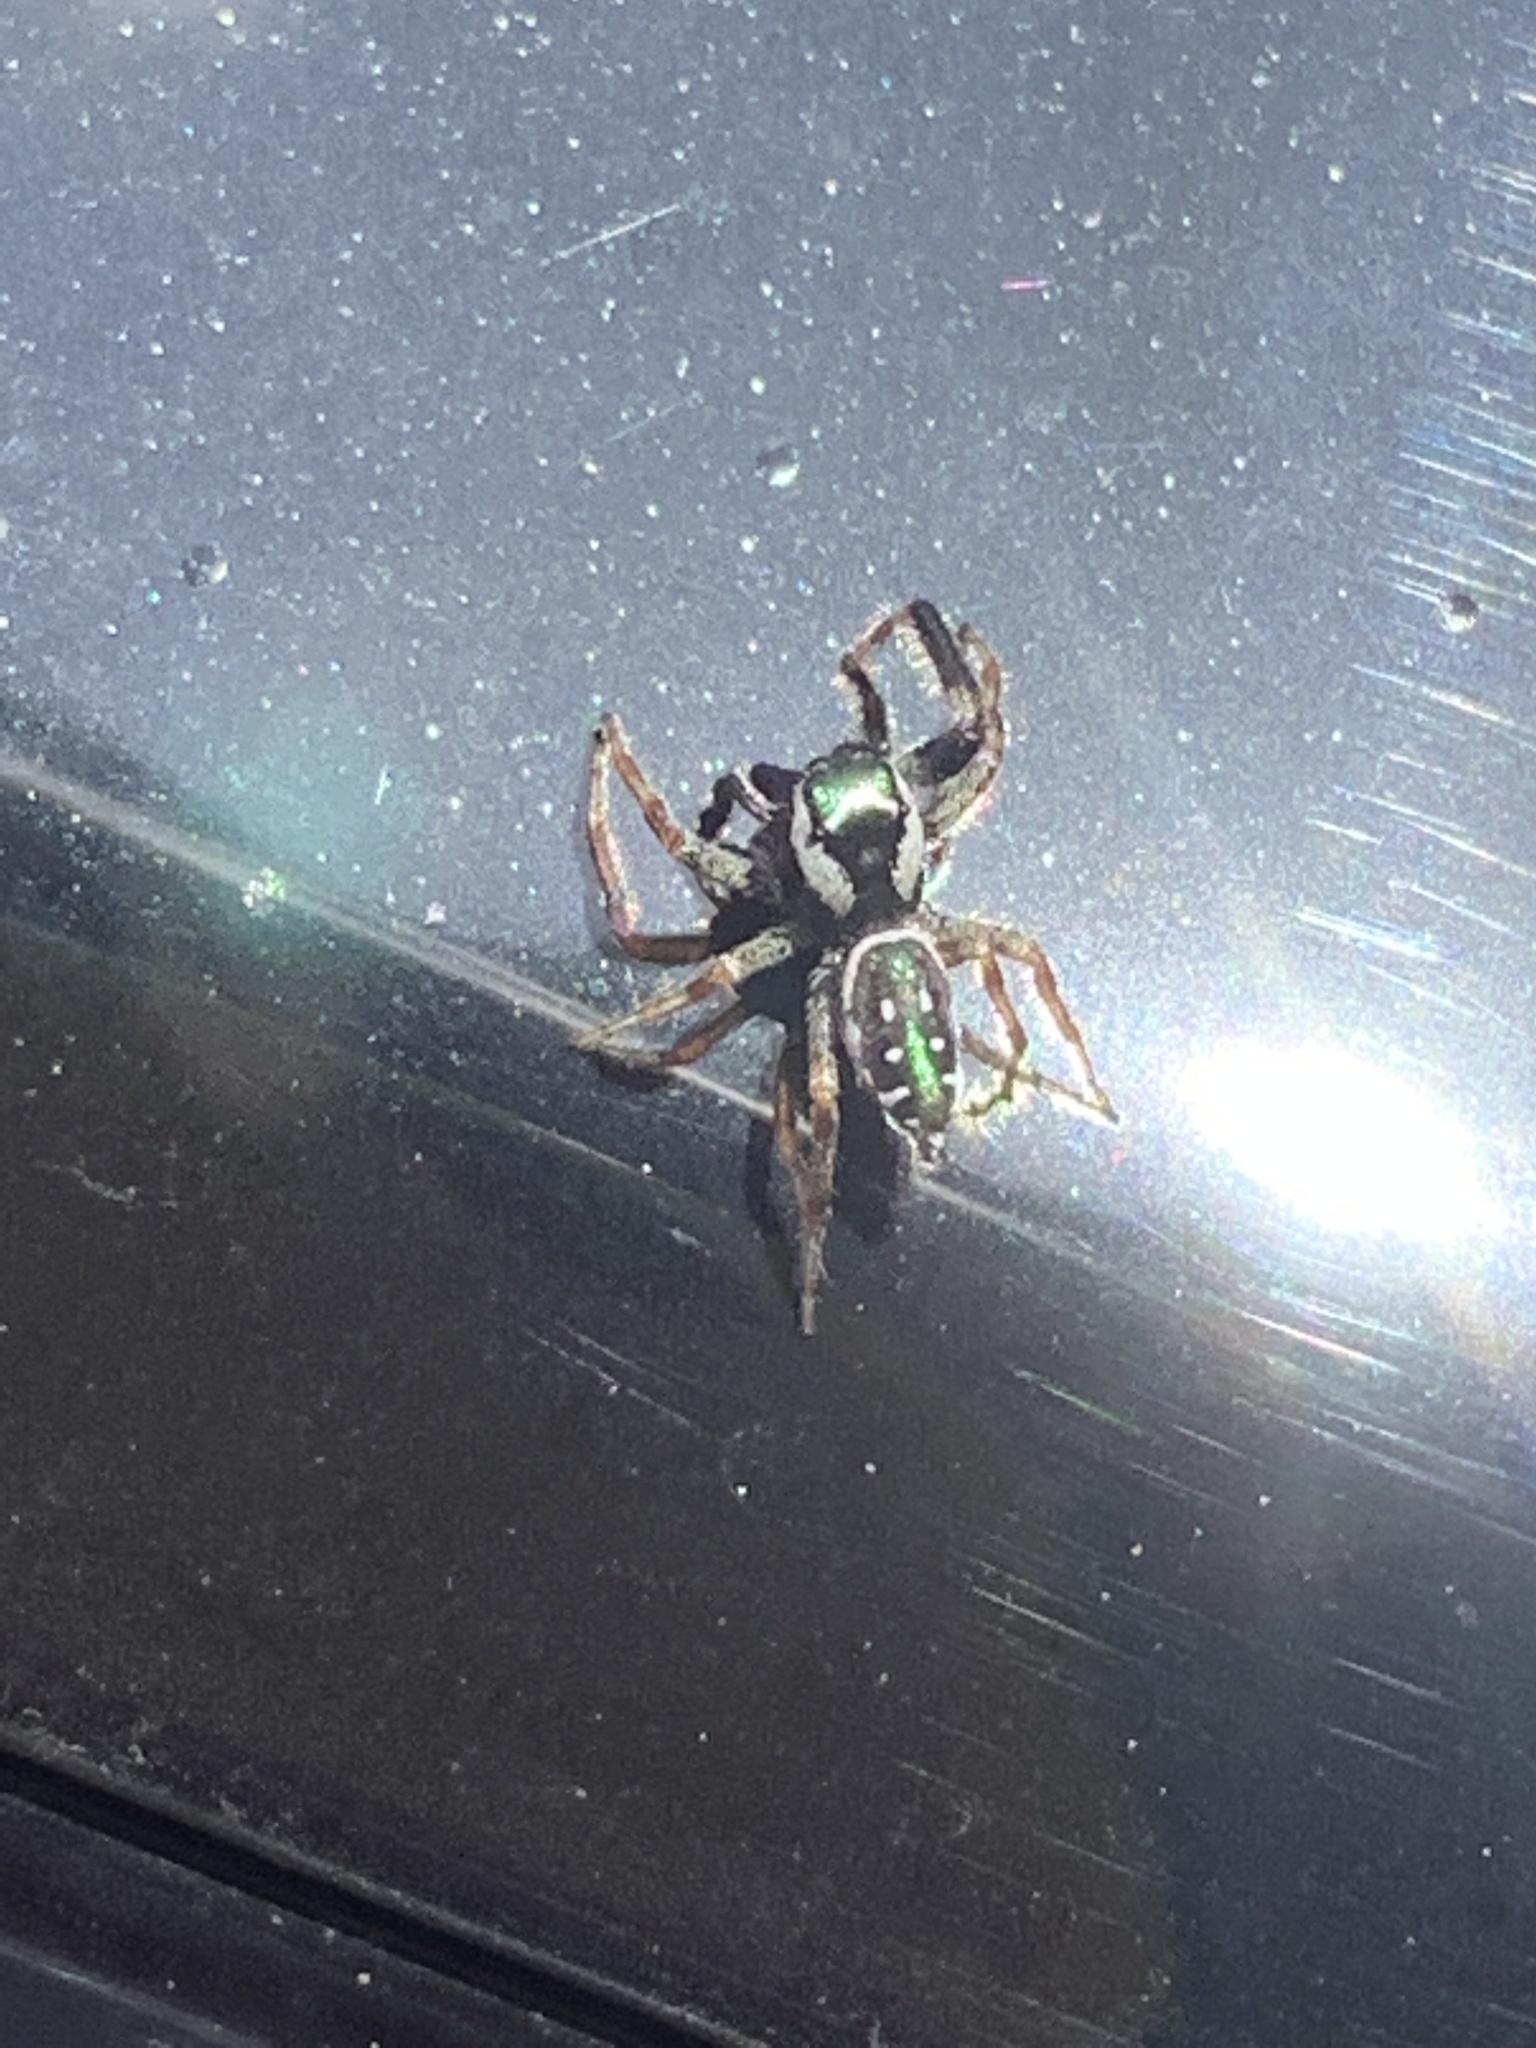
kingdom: Animalia
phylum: Arthropoda
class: Arachnida
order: Araneae
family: Salticidae
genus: Paraphidippus
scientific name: Paraphidippus aurantius
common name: Jumping spiders
